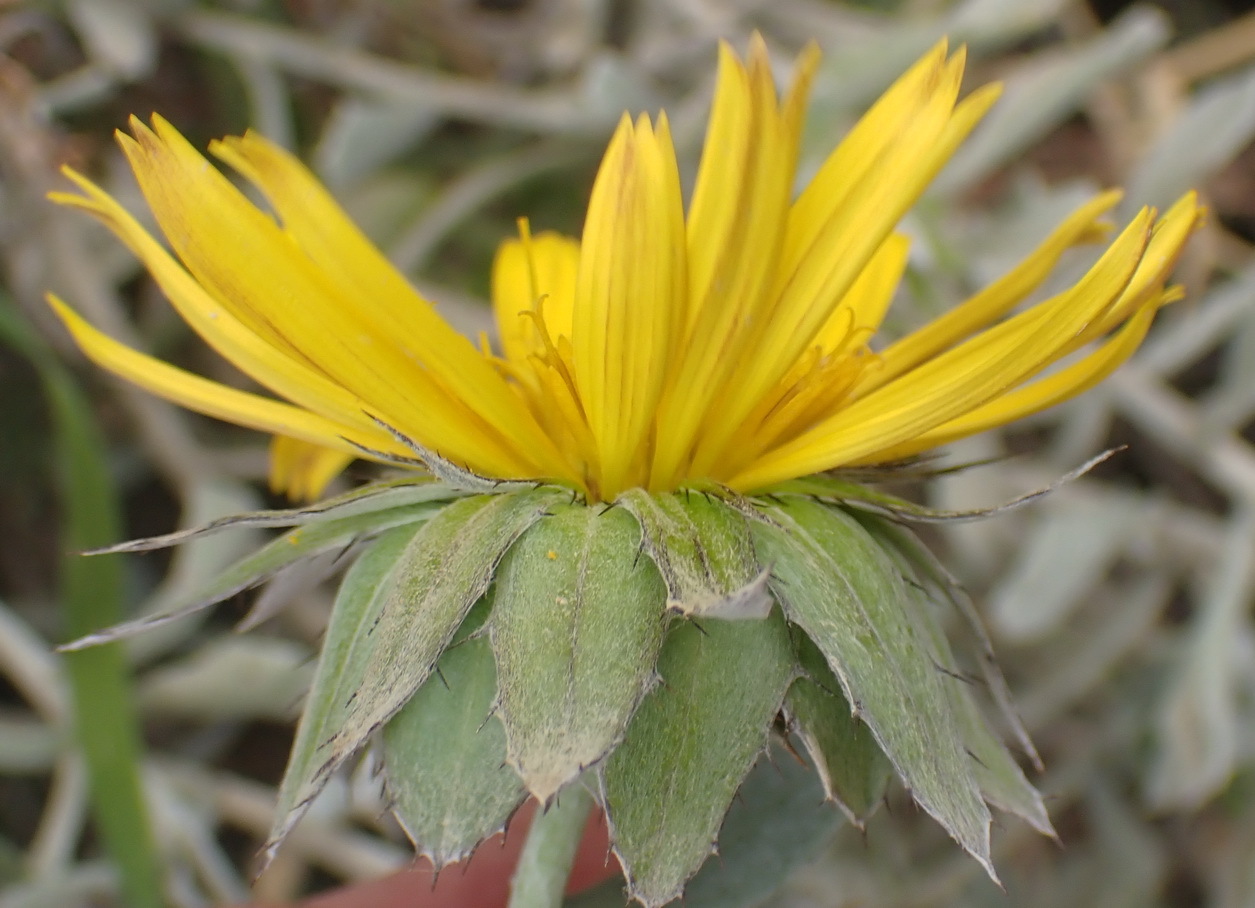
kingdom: Plantae
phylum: Tracheophyta
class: Magnoliopsida
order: Asterales
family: Asteraceae
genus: Berkheya
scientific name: Berkheya cuneata
